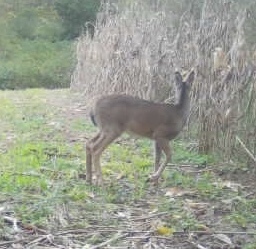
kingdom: Animalia
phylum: Chordata
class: Mammalia
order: Artiodactyla
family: Cervidae
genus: Odocoileus
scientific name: Odocoileus virginianus
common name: White-tailed deer
